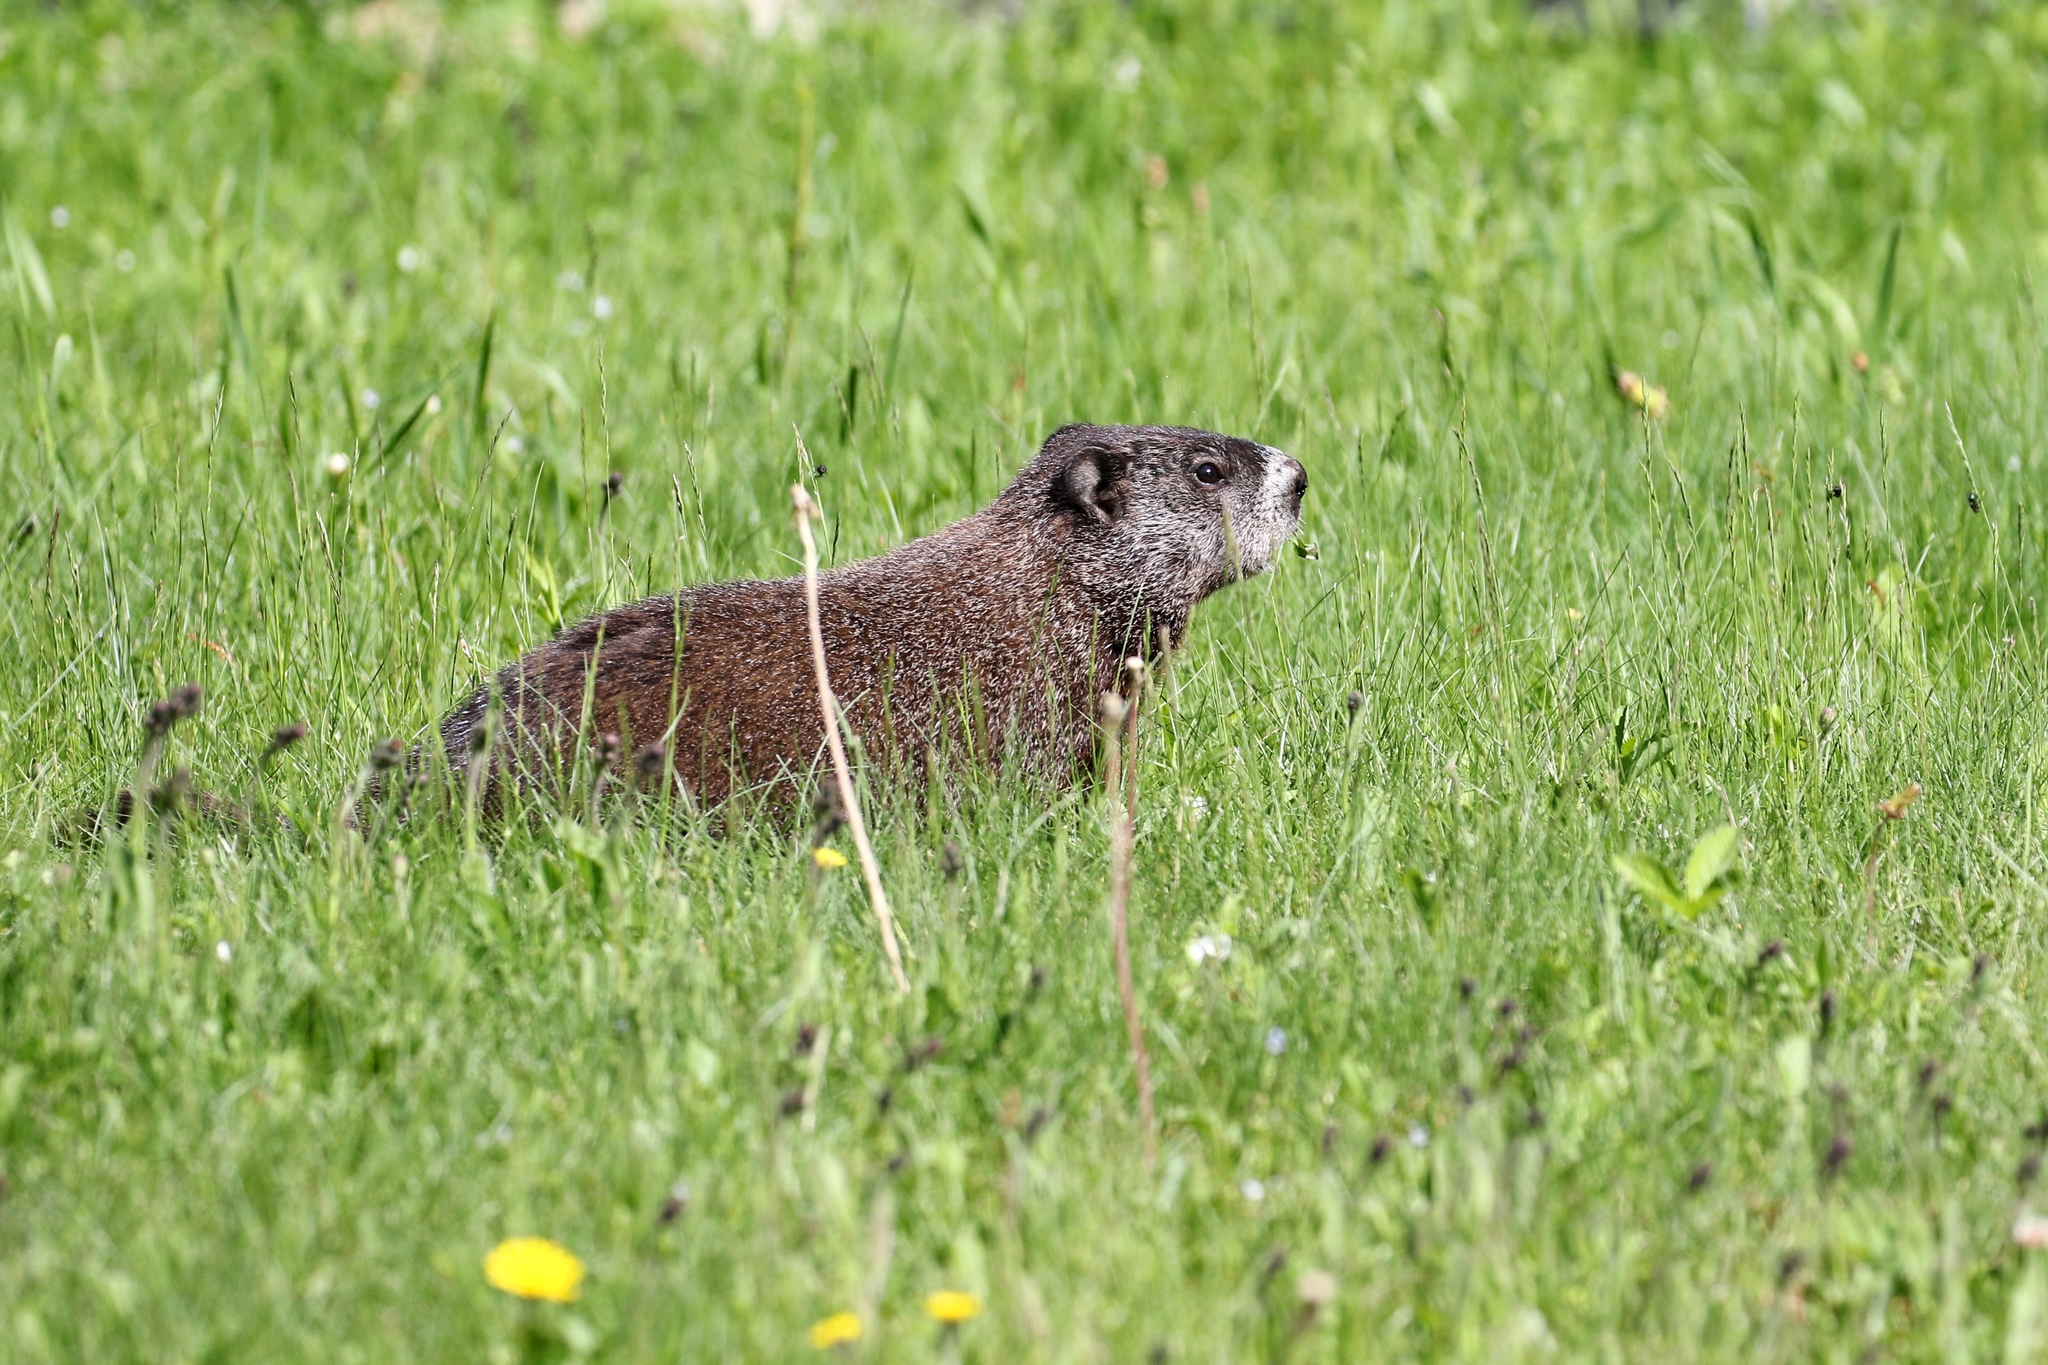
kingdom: Animalia
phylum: Chordata
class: Mammalia
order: Rodentia
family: Sciuridae
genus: Marmota
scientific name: Marmota monax
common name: Groundhog
